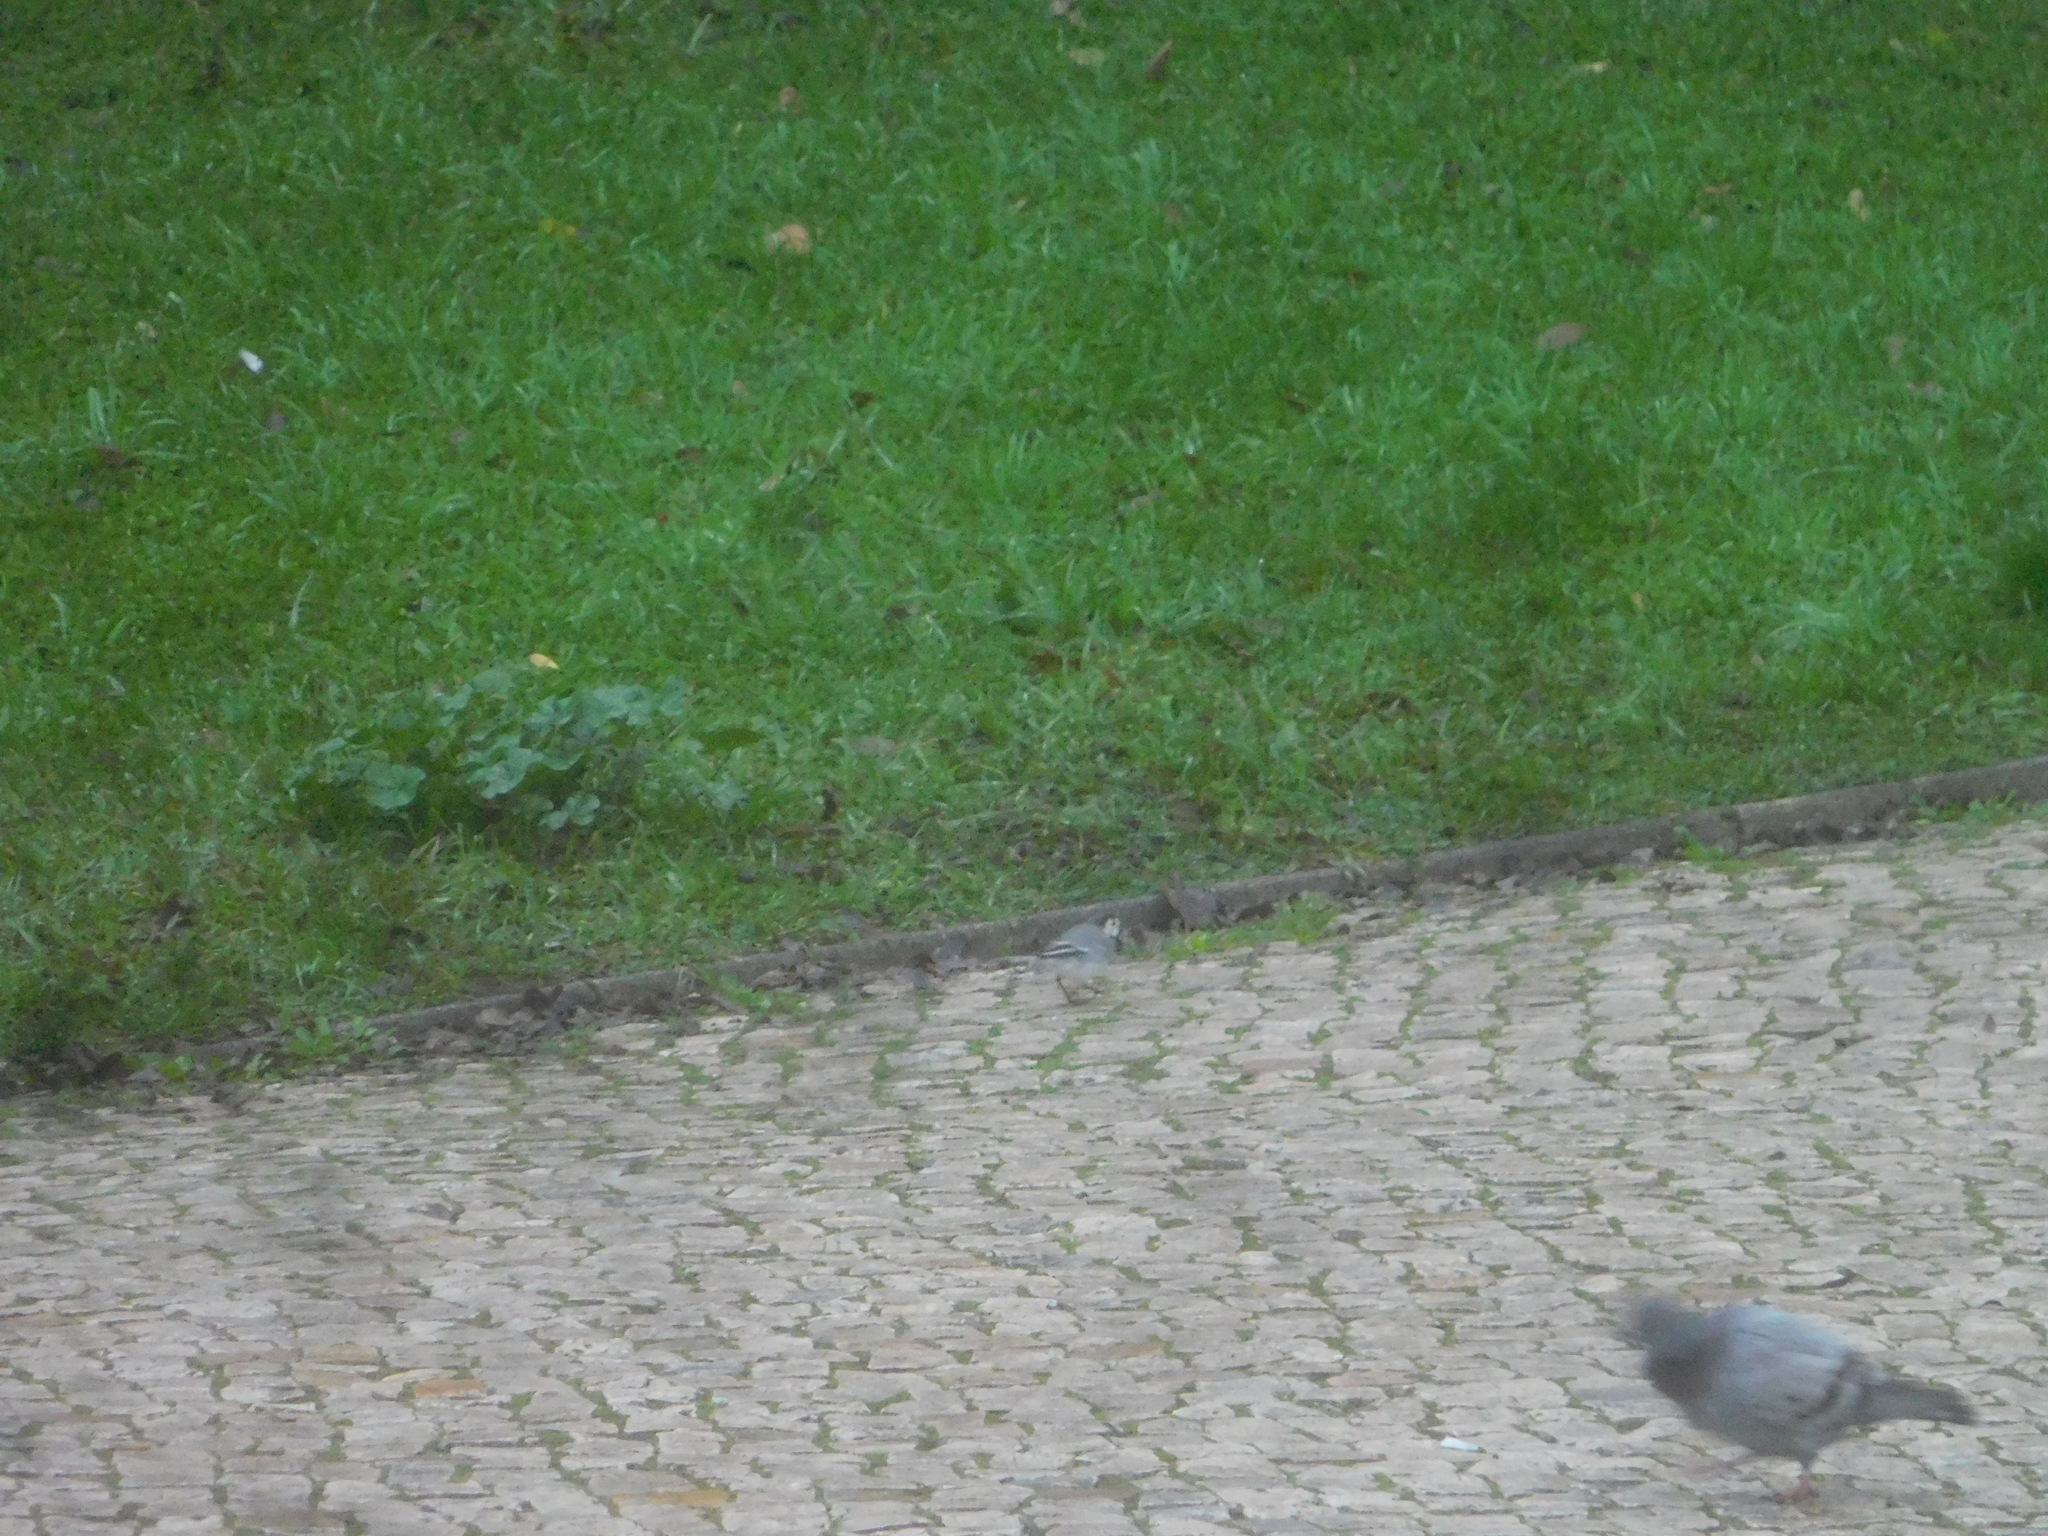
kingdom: Animalia
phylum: Chordata
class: Aves
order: Passeriformes
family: Motacillidae
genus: Motacilla
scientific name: Motacilla alba
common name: White wagtail
